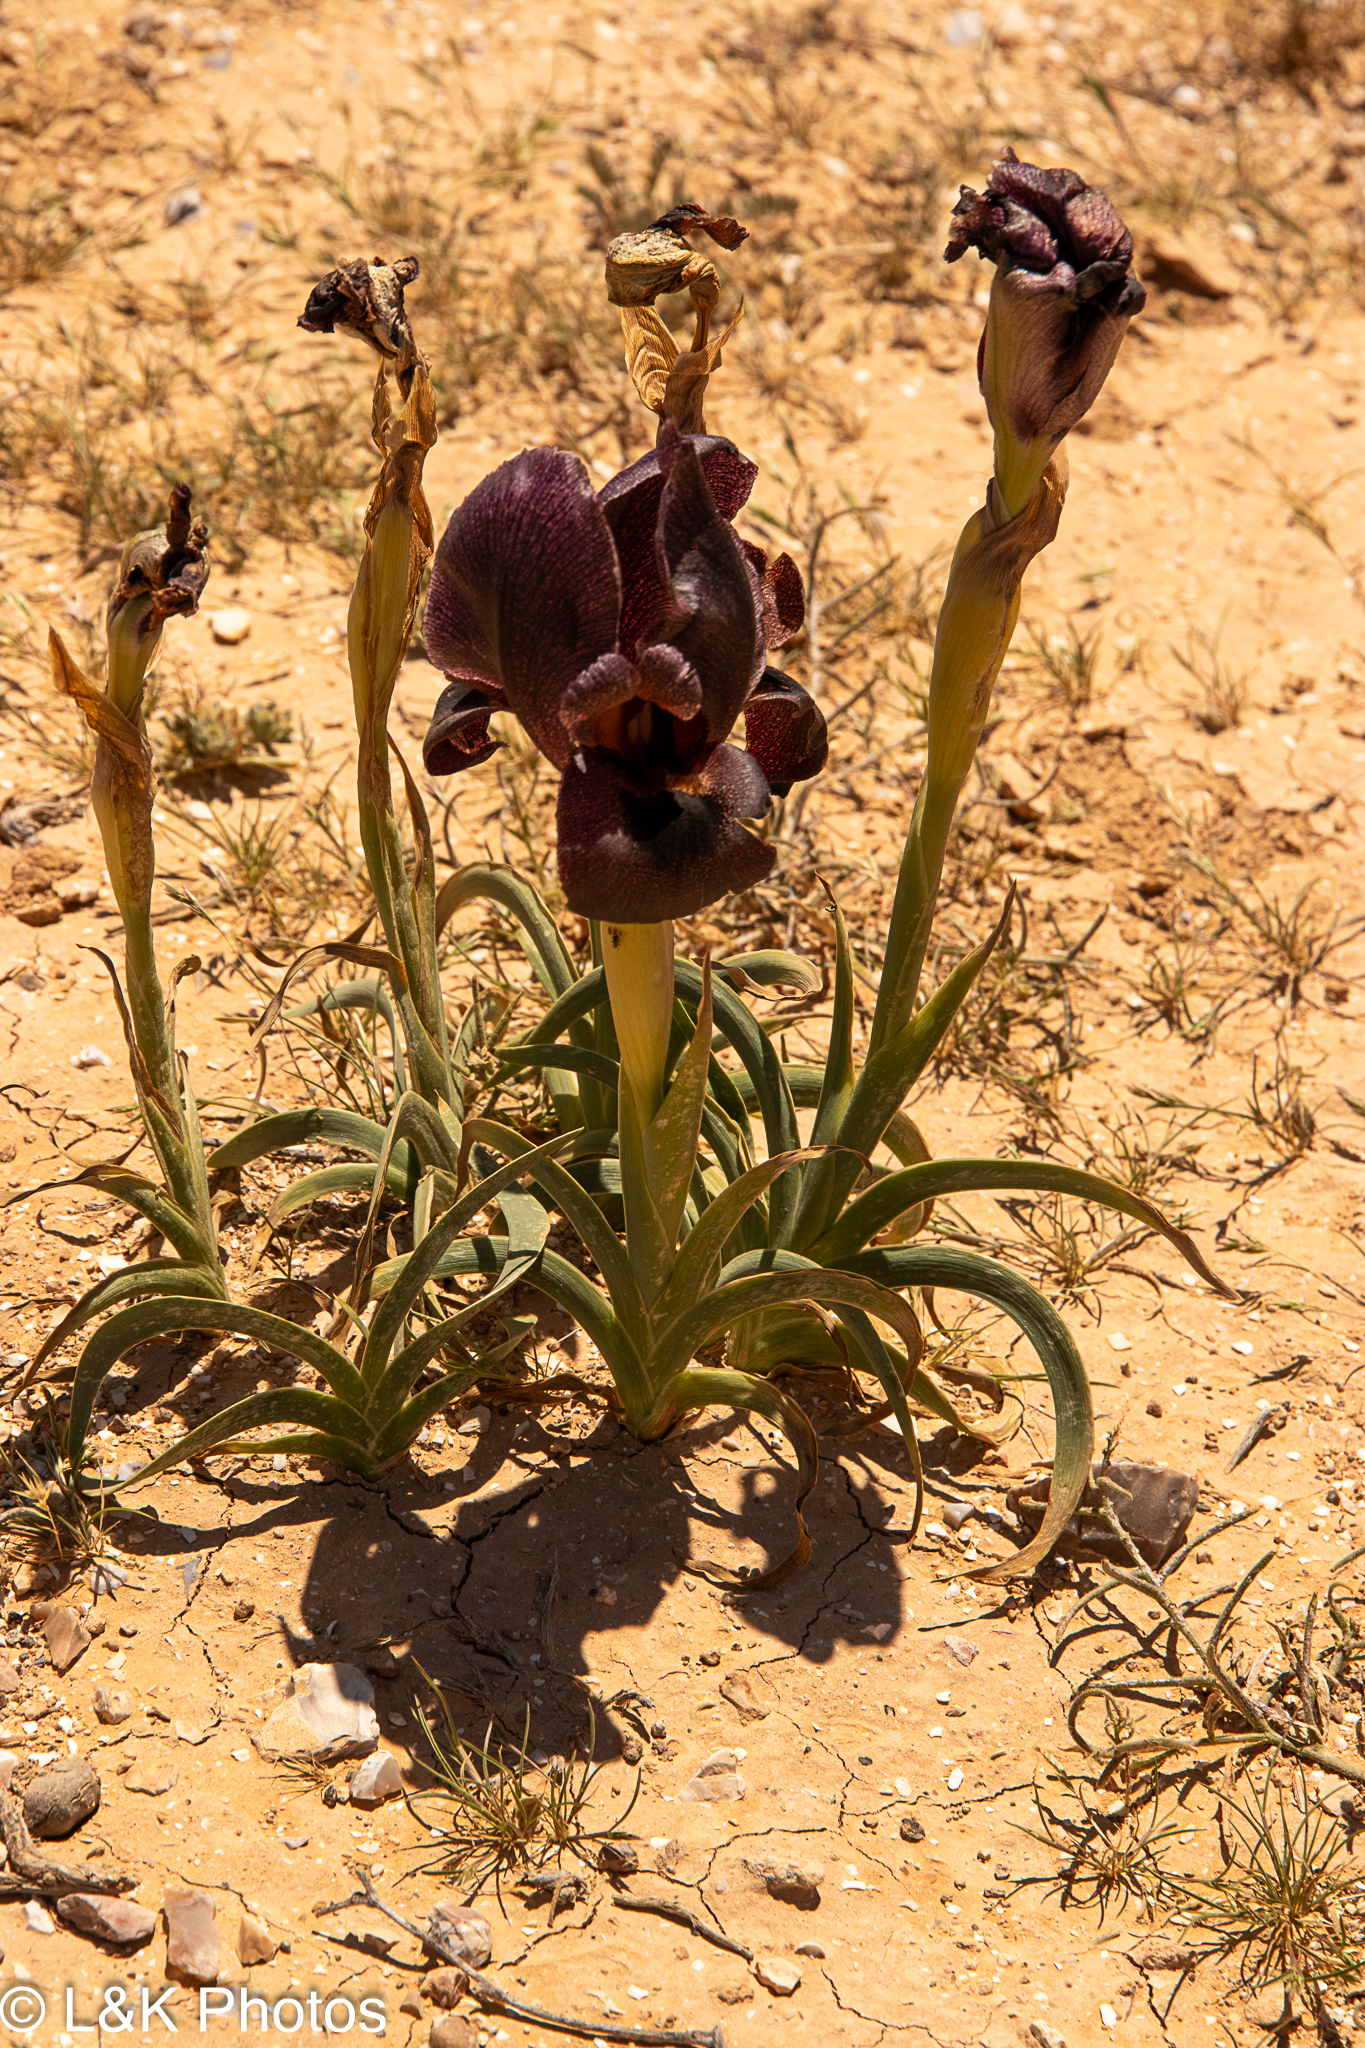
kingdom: Plantae
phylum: Tracheophyta
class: Liliopsida
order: Asparagales
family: Iridaceae
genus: Iris
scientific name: Iris petrana
